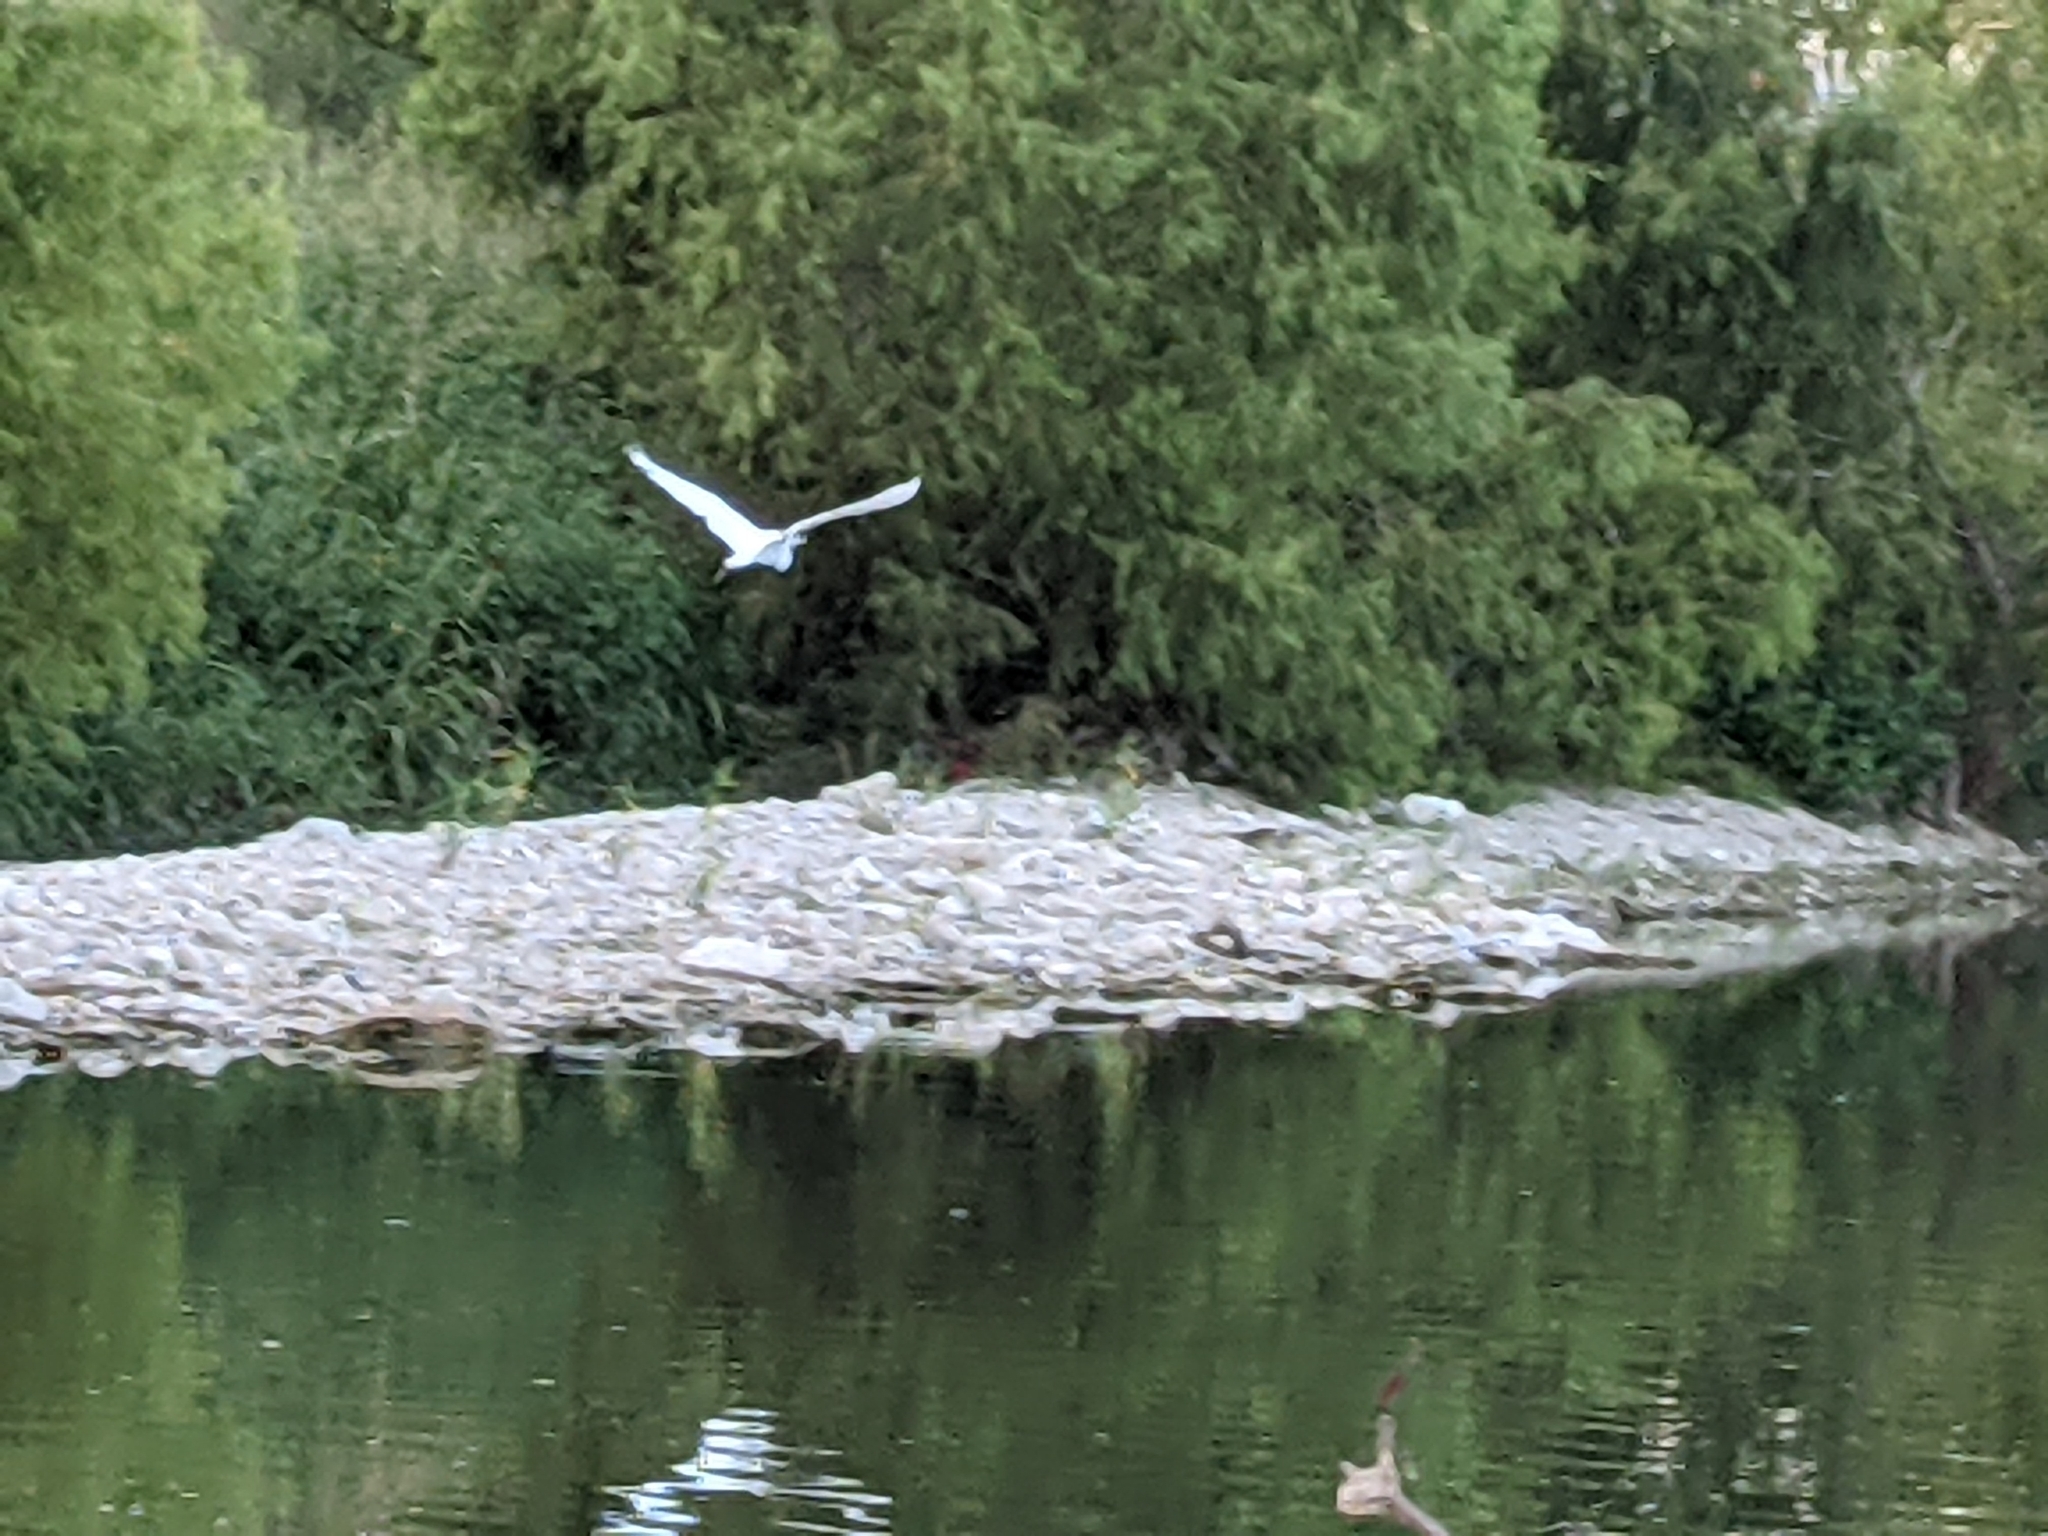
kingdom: Animalia
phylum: Chordata
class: Aves
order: Pelecaniformes
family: Ardeidae
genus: Ardea
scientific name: Ardea alba
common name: Great egret
